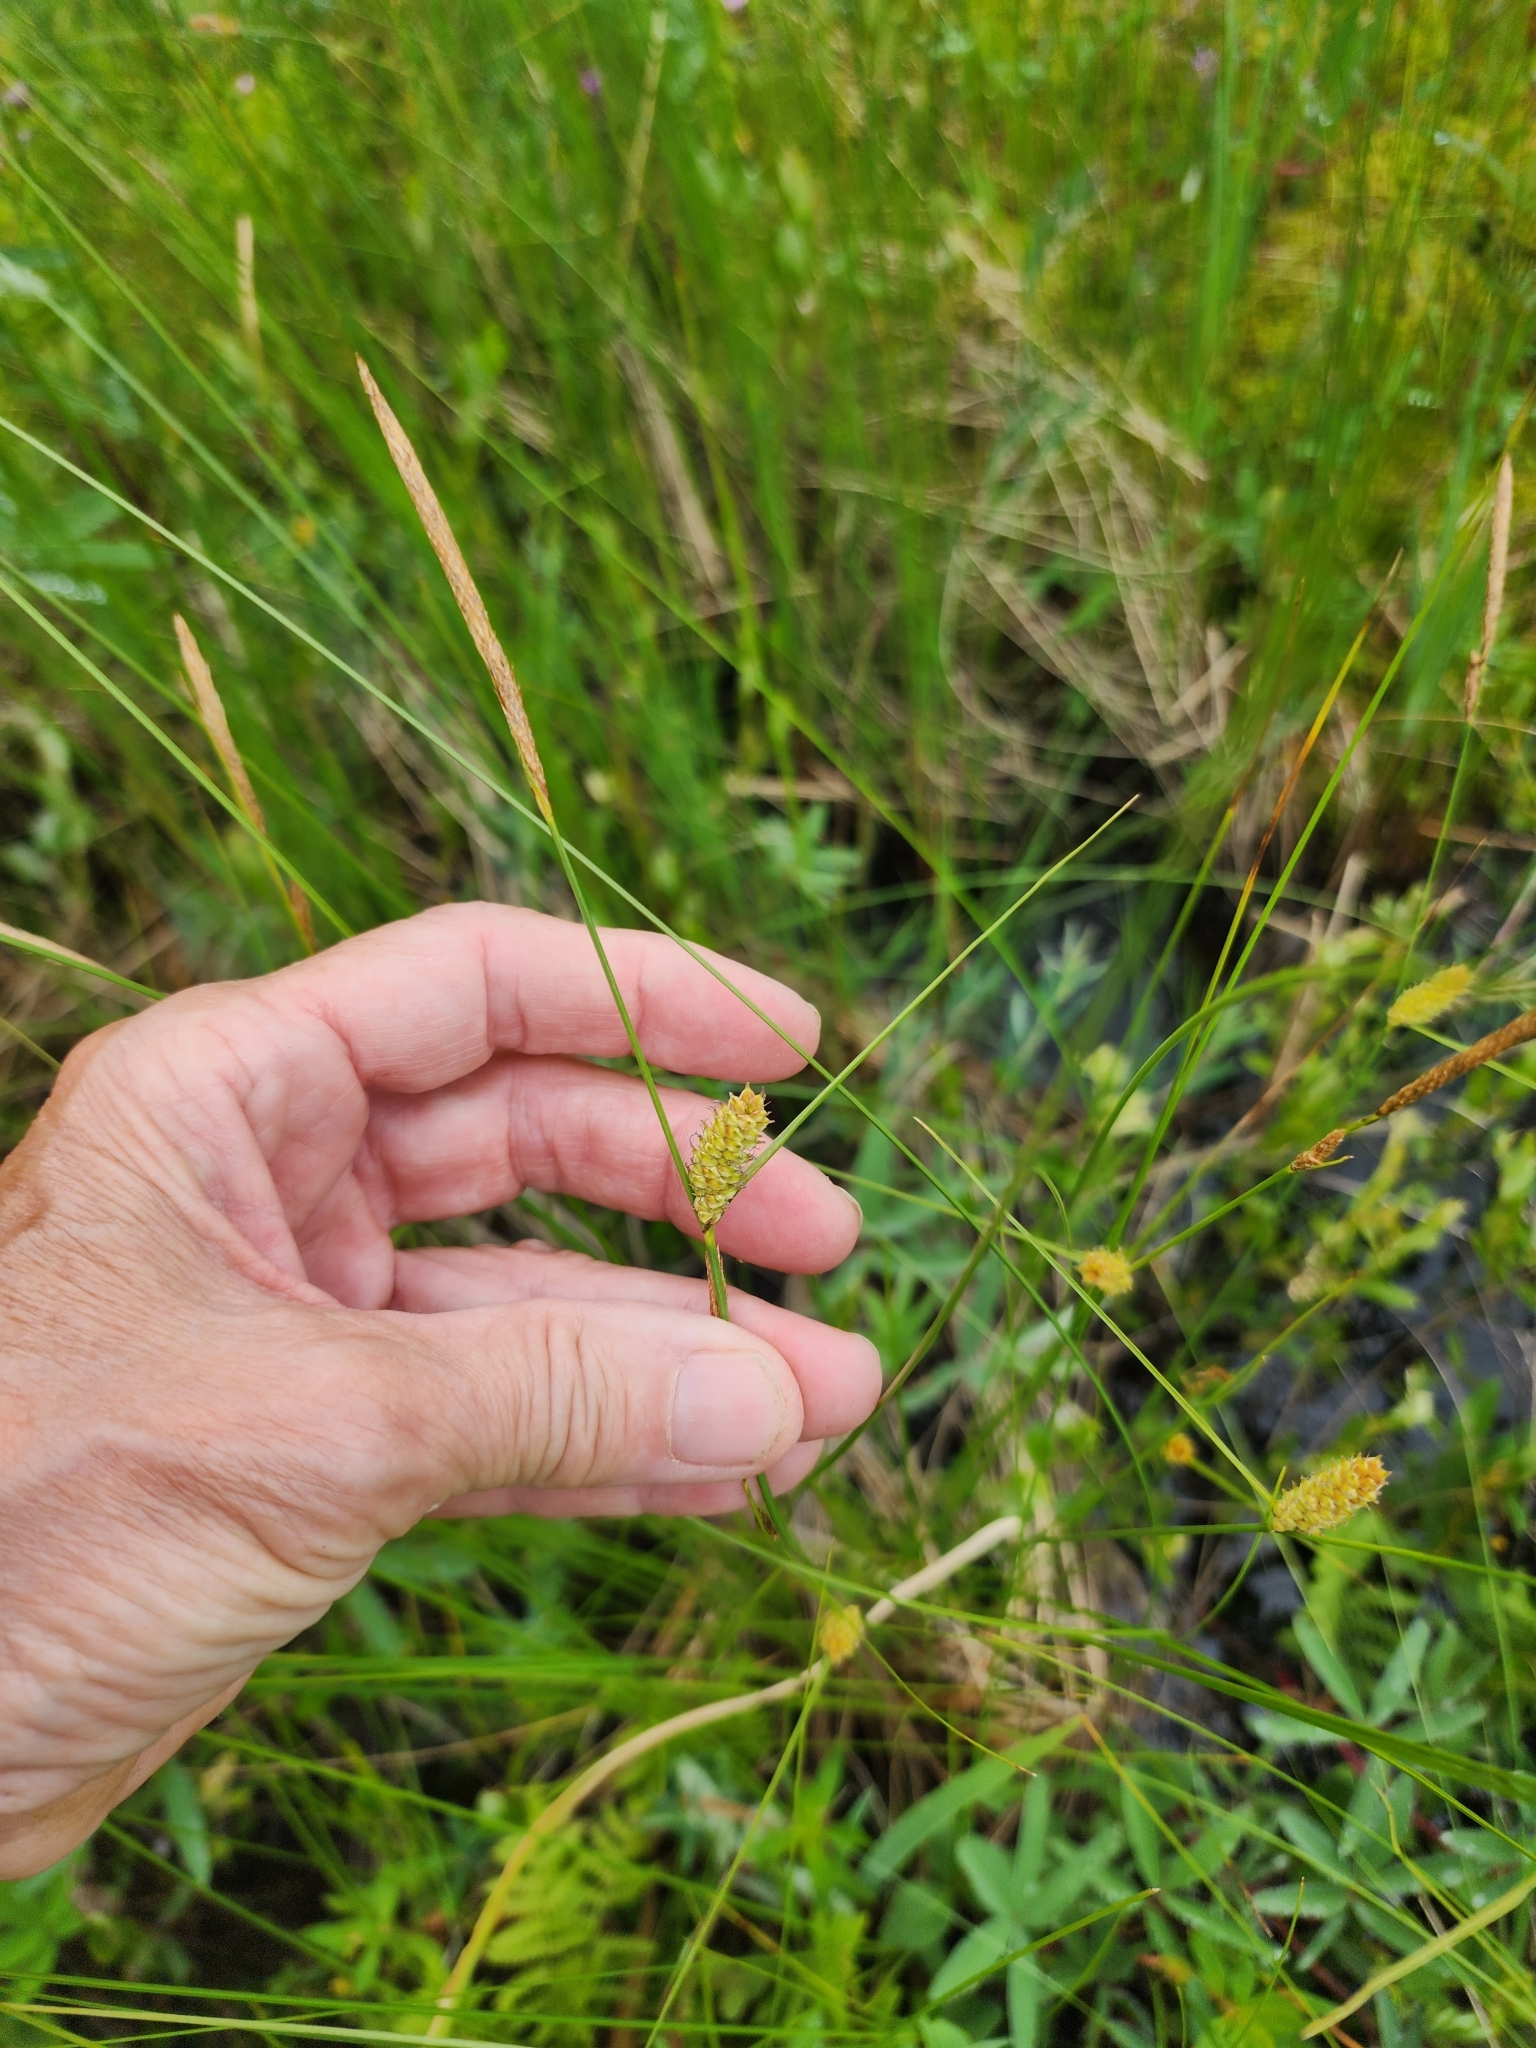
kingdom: Plantae
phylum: Tracheophyta
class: Liliopsida
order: Poales
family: Cyperaceae
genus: Carex
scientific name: Carex lasiocarpa
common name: Slender sedge
